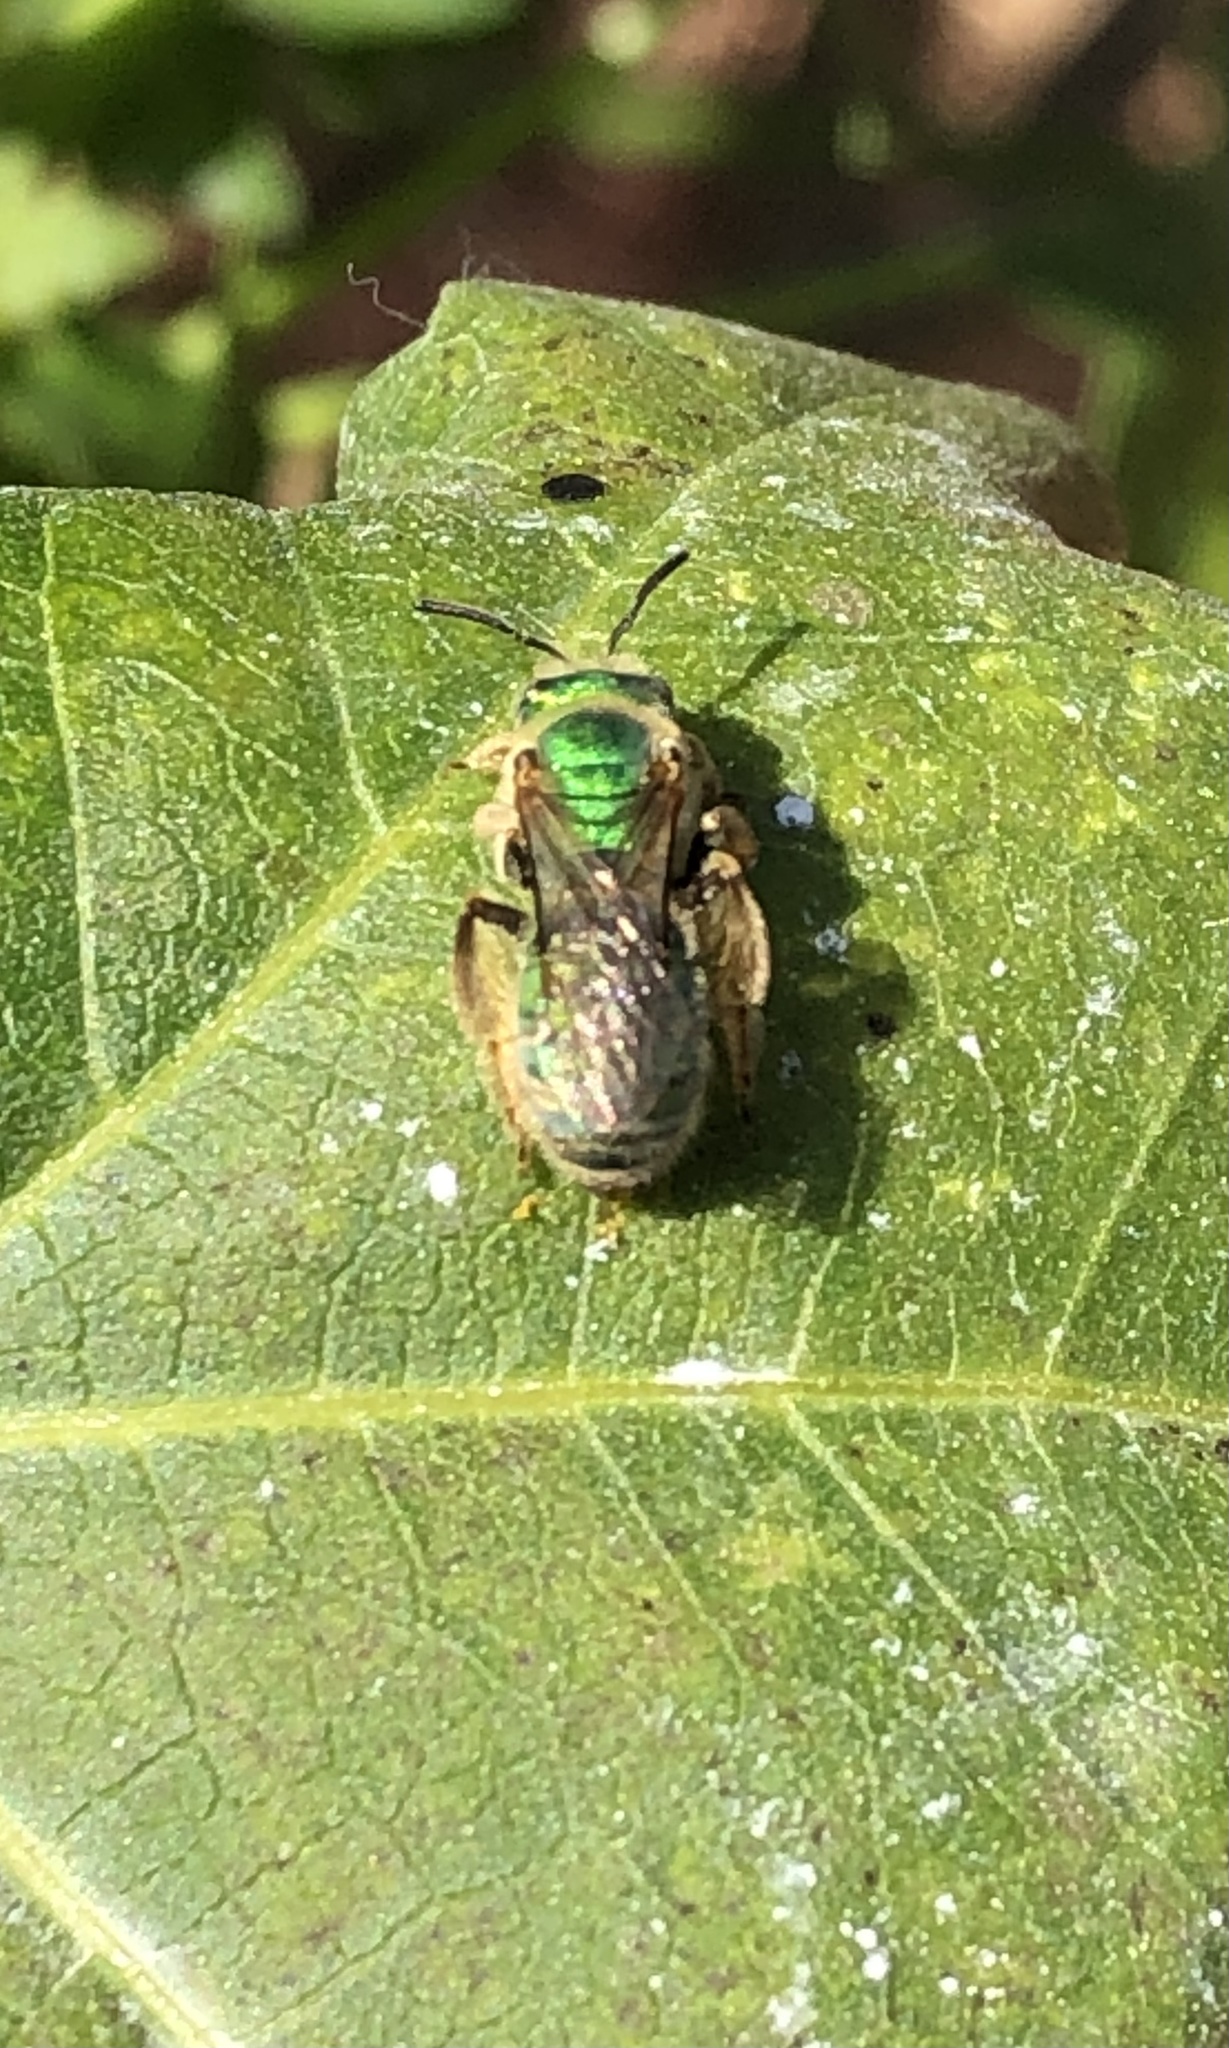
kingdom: Animalia
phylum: Arthropoda
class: Insecta
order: Hymenoptera
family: Halictidae
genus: Agapostemon
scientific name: Agapostemon
